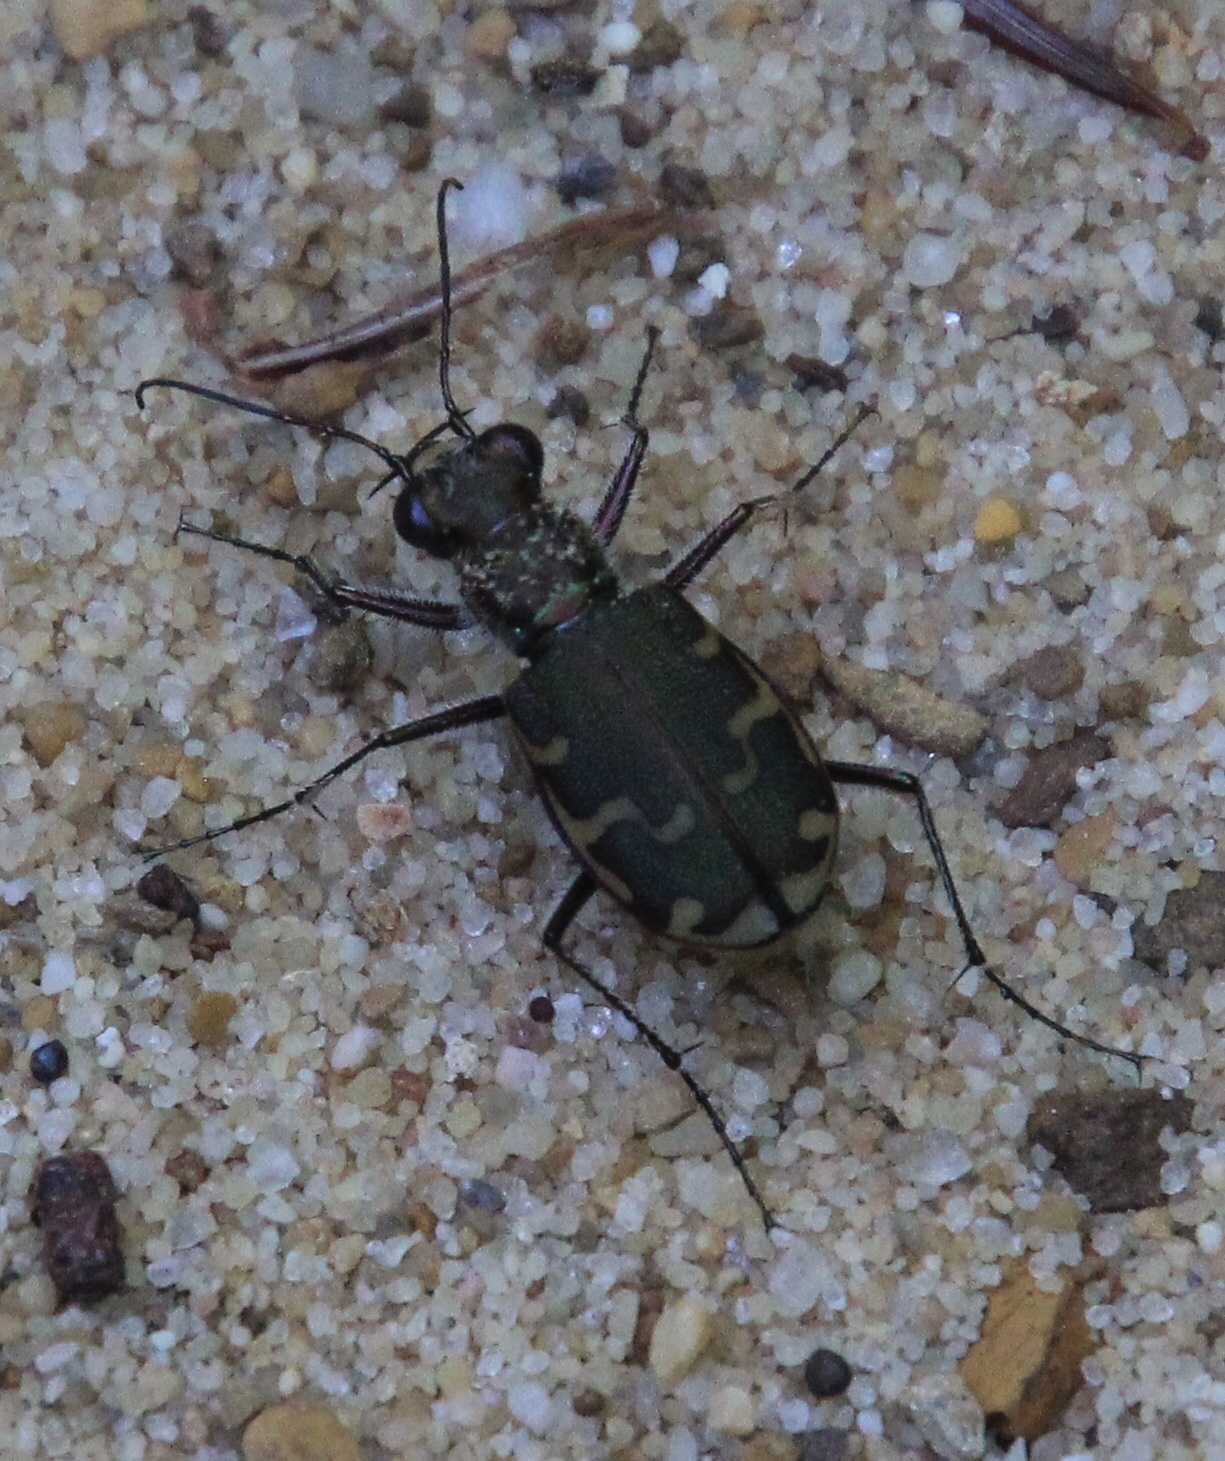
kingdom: Animalia
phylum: Arthropoda
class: Insecta
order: Coleoptera
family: Carabidae
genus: Cicindela
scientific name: Cicindela repanda
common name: Bronzed tiger beetle
